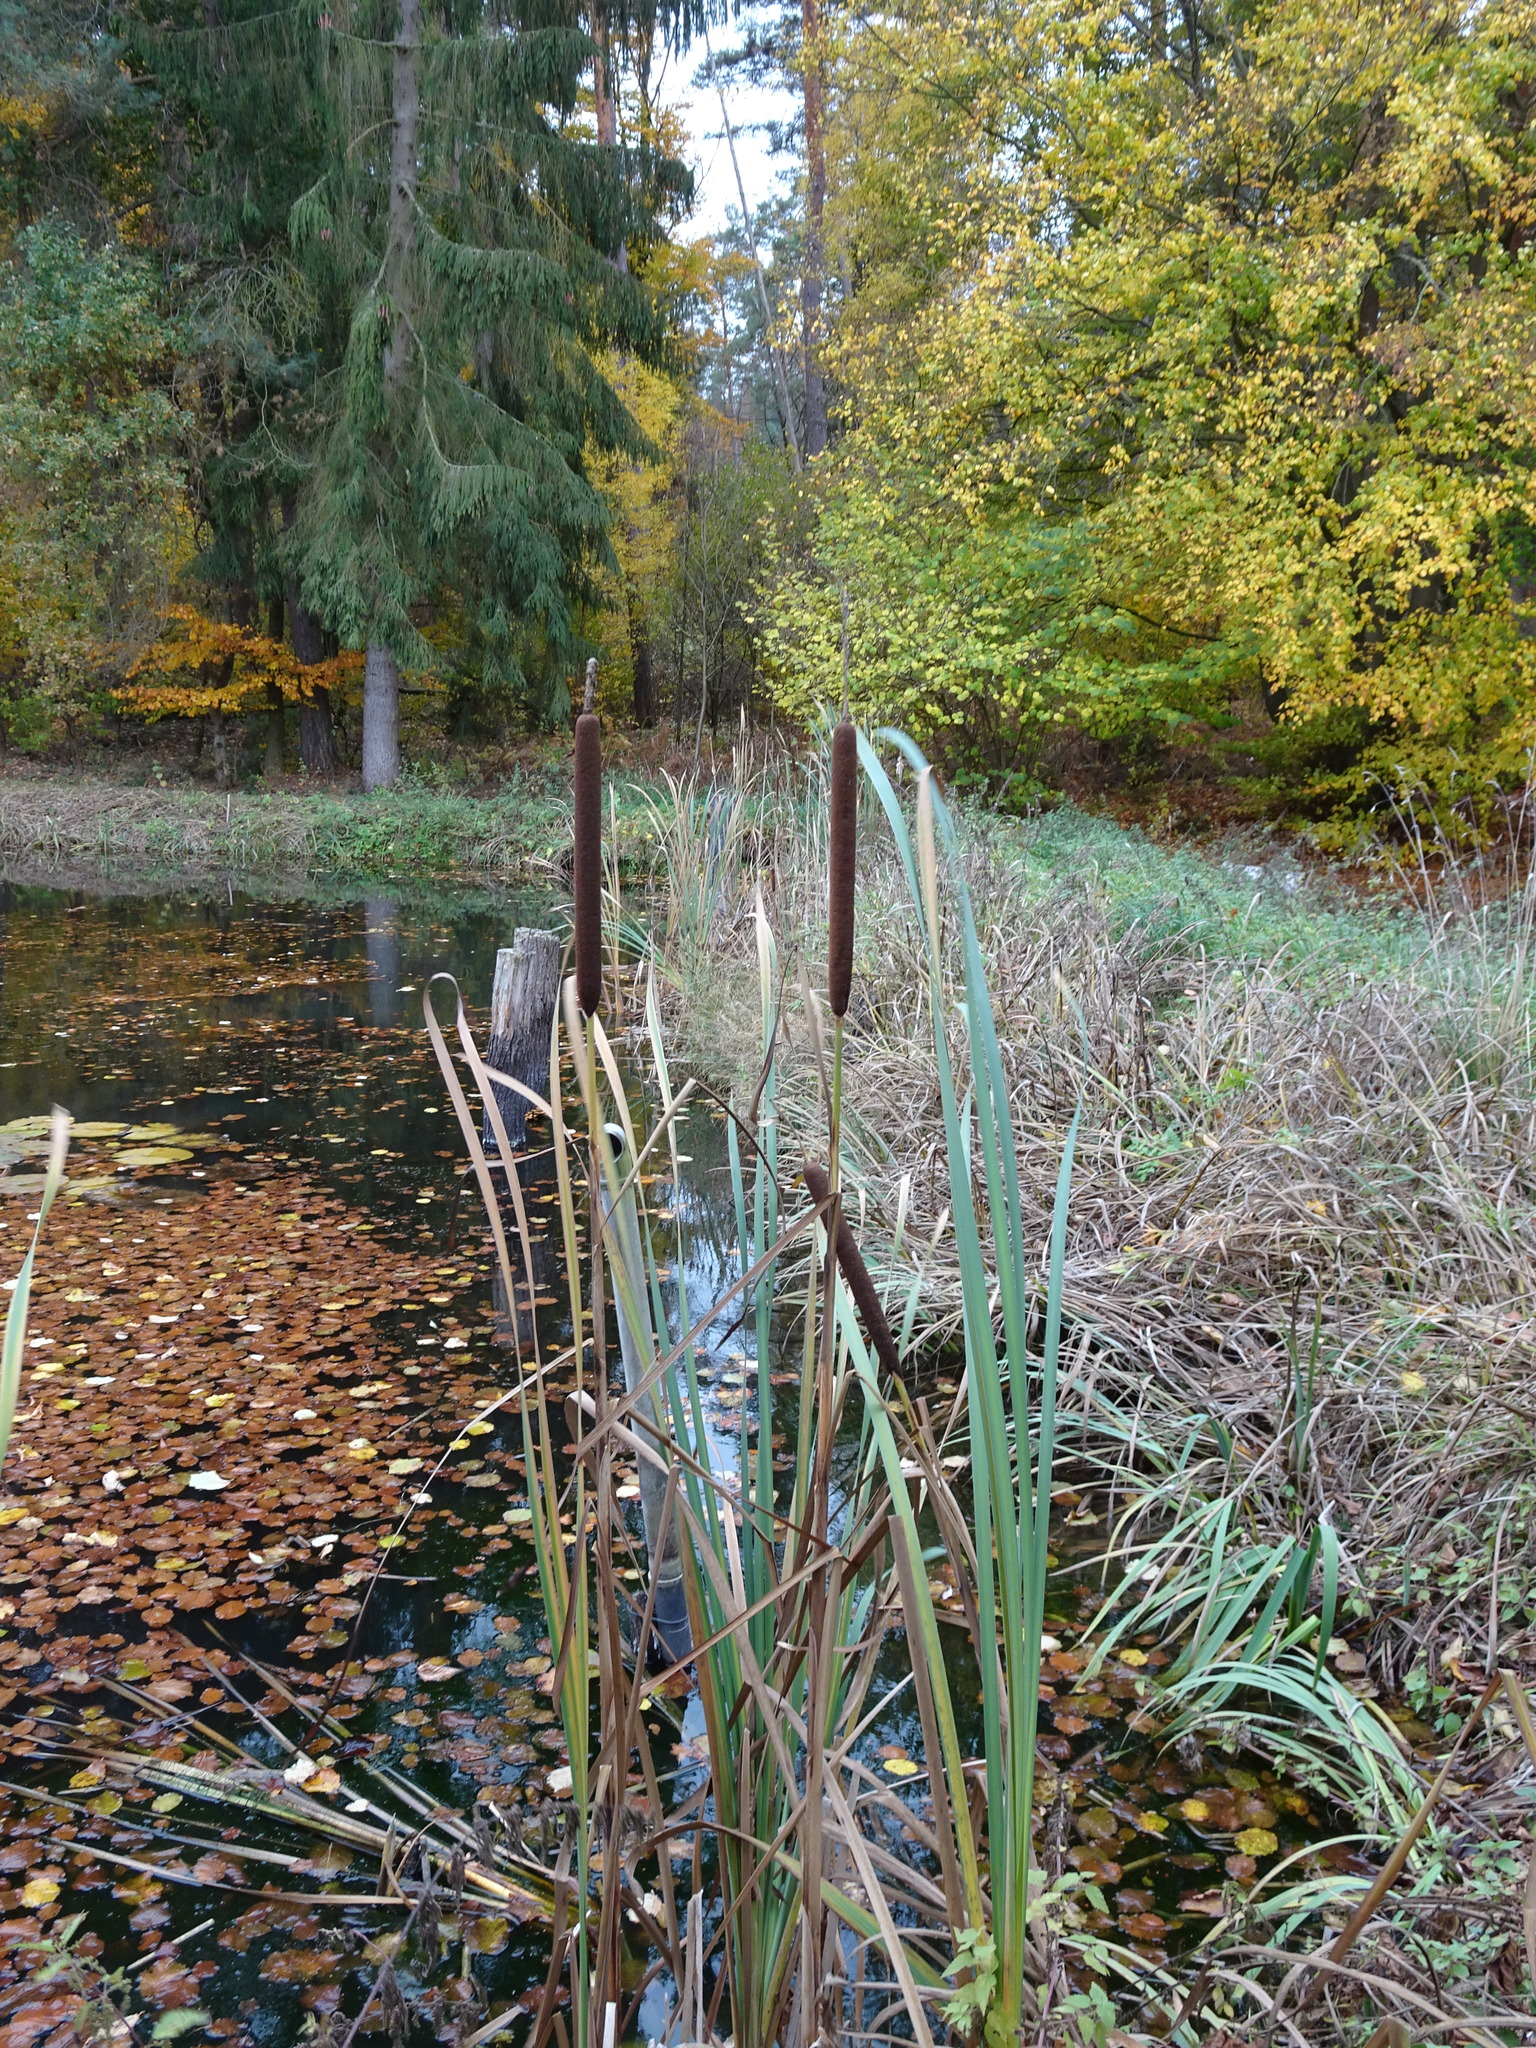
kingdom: Plantae
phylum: Tracheophyta
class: Liliopsida
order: Poales
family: Typhaceae
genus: Typha
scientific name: Typha latifolia
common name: Broadleaf cattail
